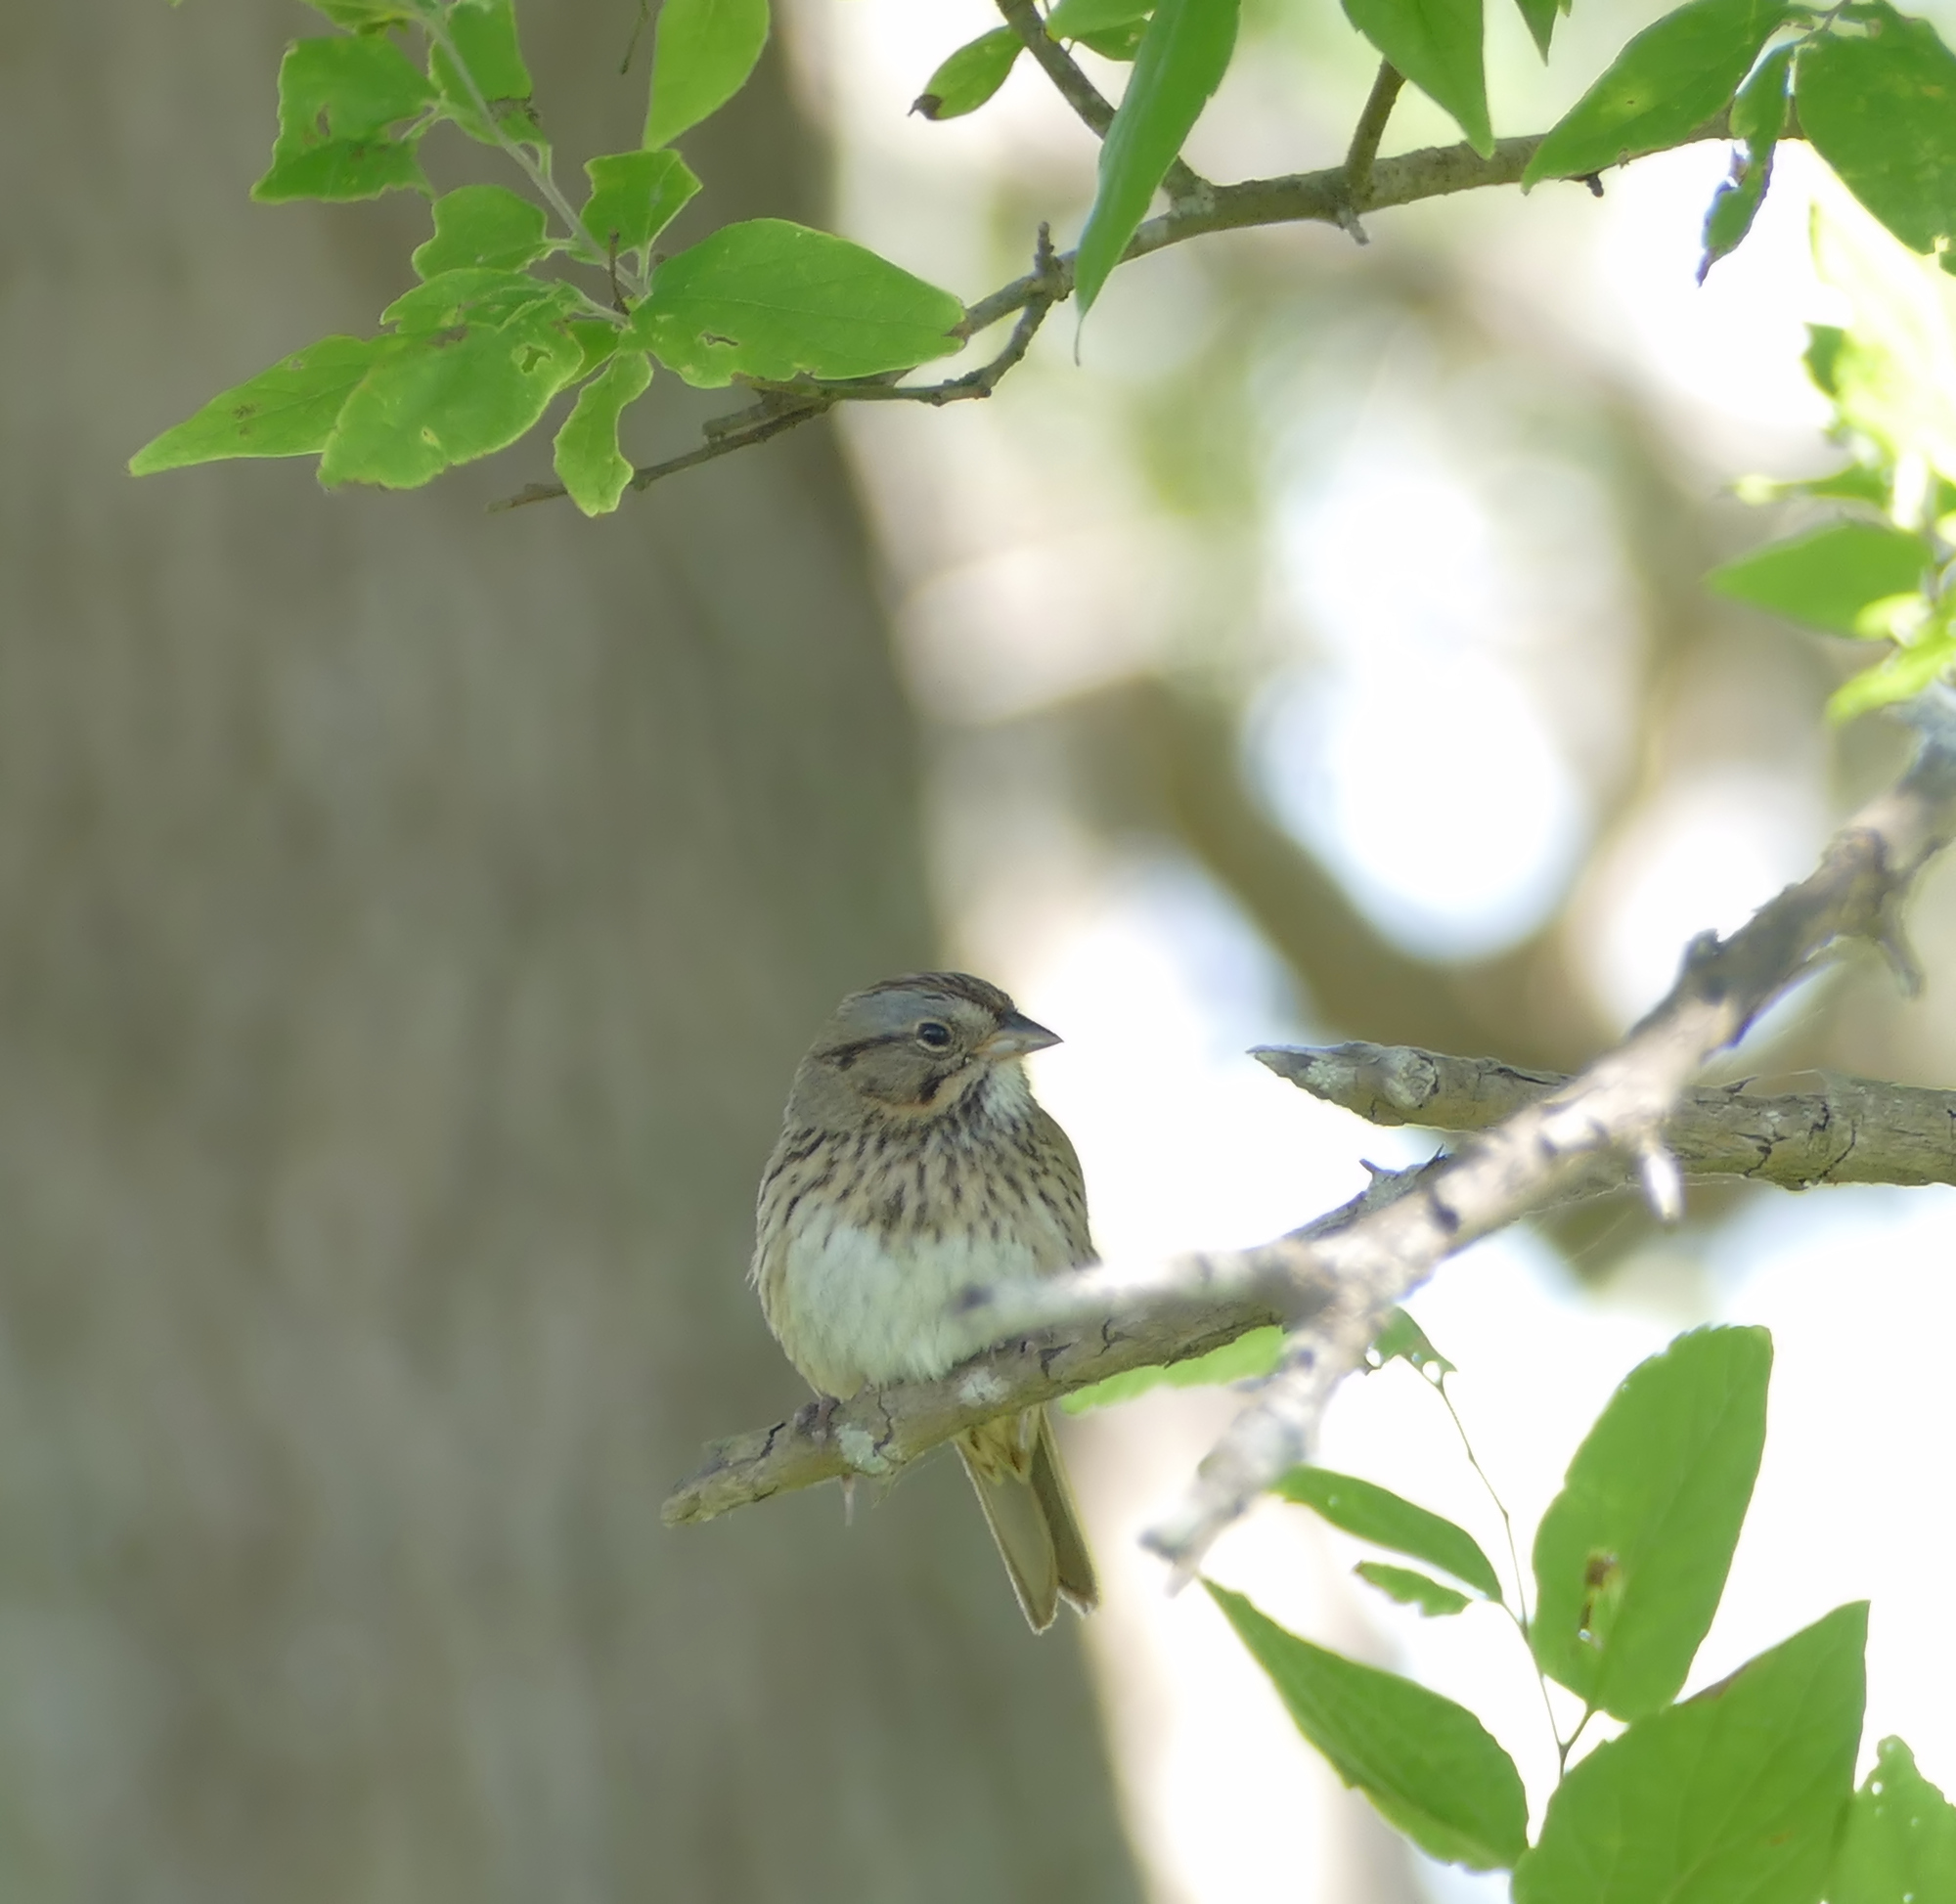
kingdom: Animalia
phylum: Chordata
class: Aves
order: Passeriformes
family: Passerellidae
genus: Melospiza
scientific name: Melospiza lincolnii
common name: Lincoln's sparrow
